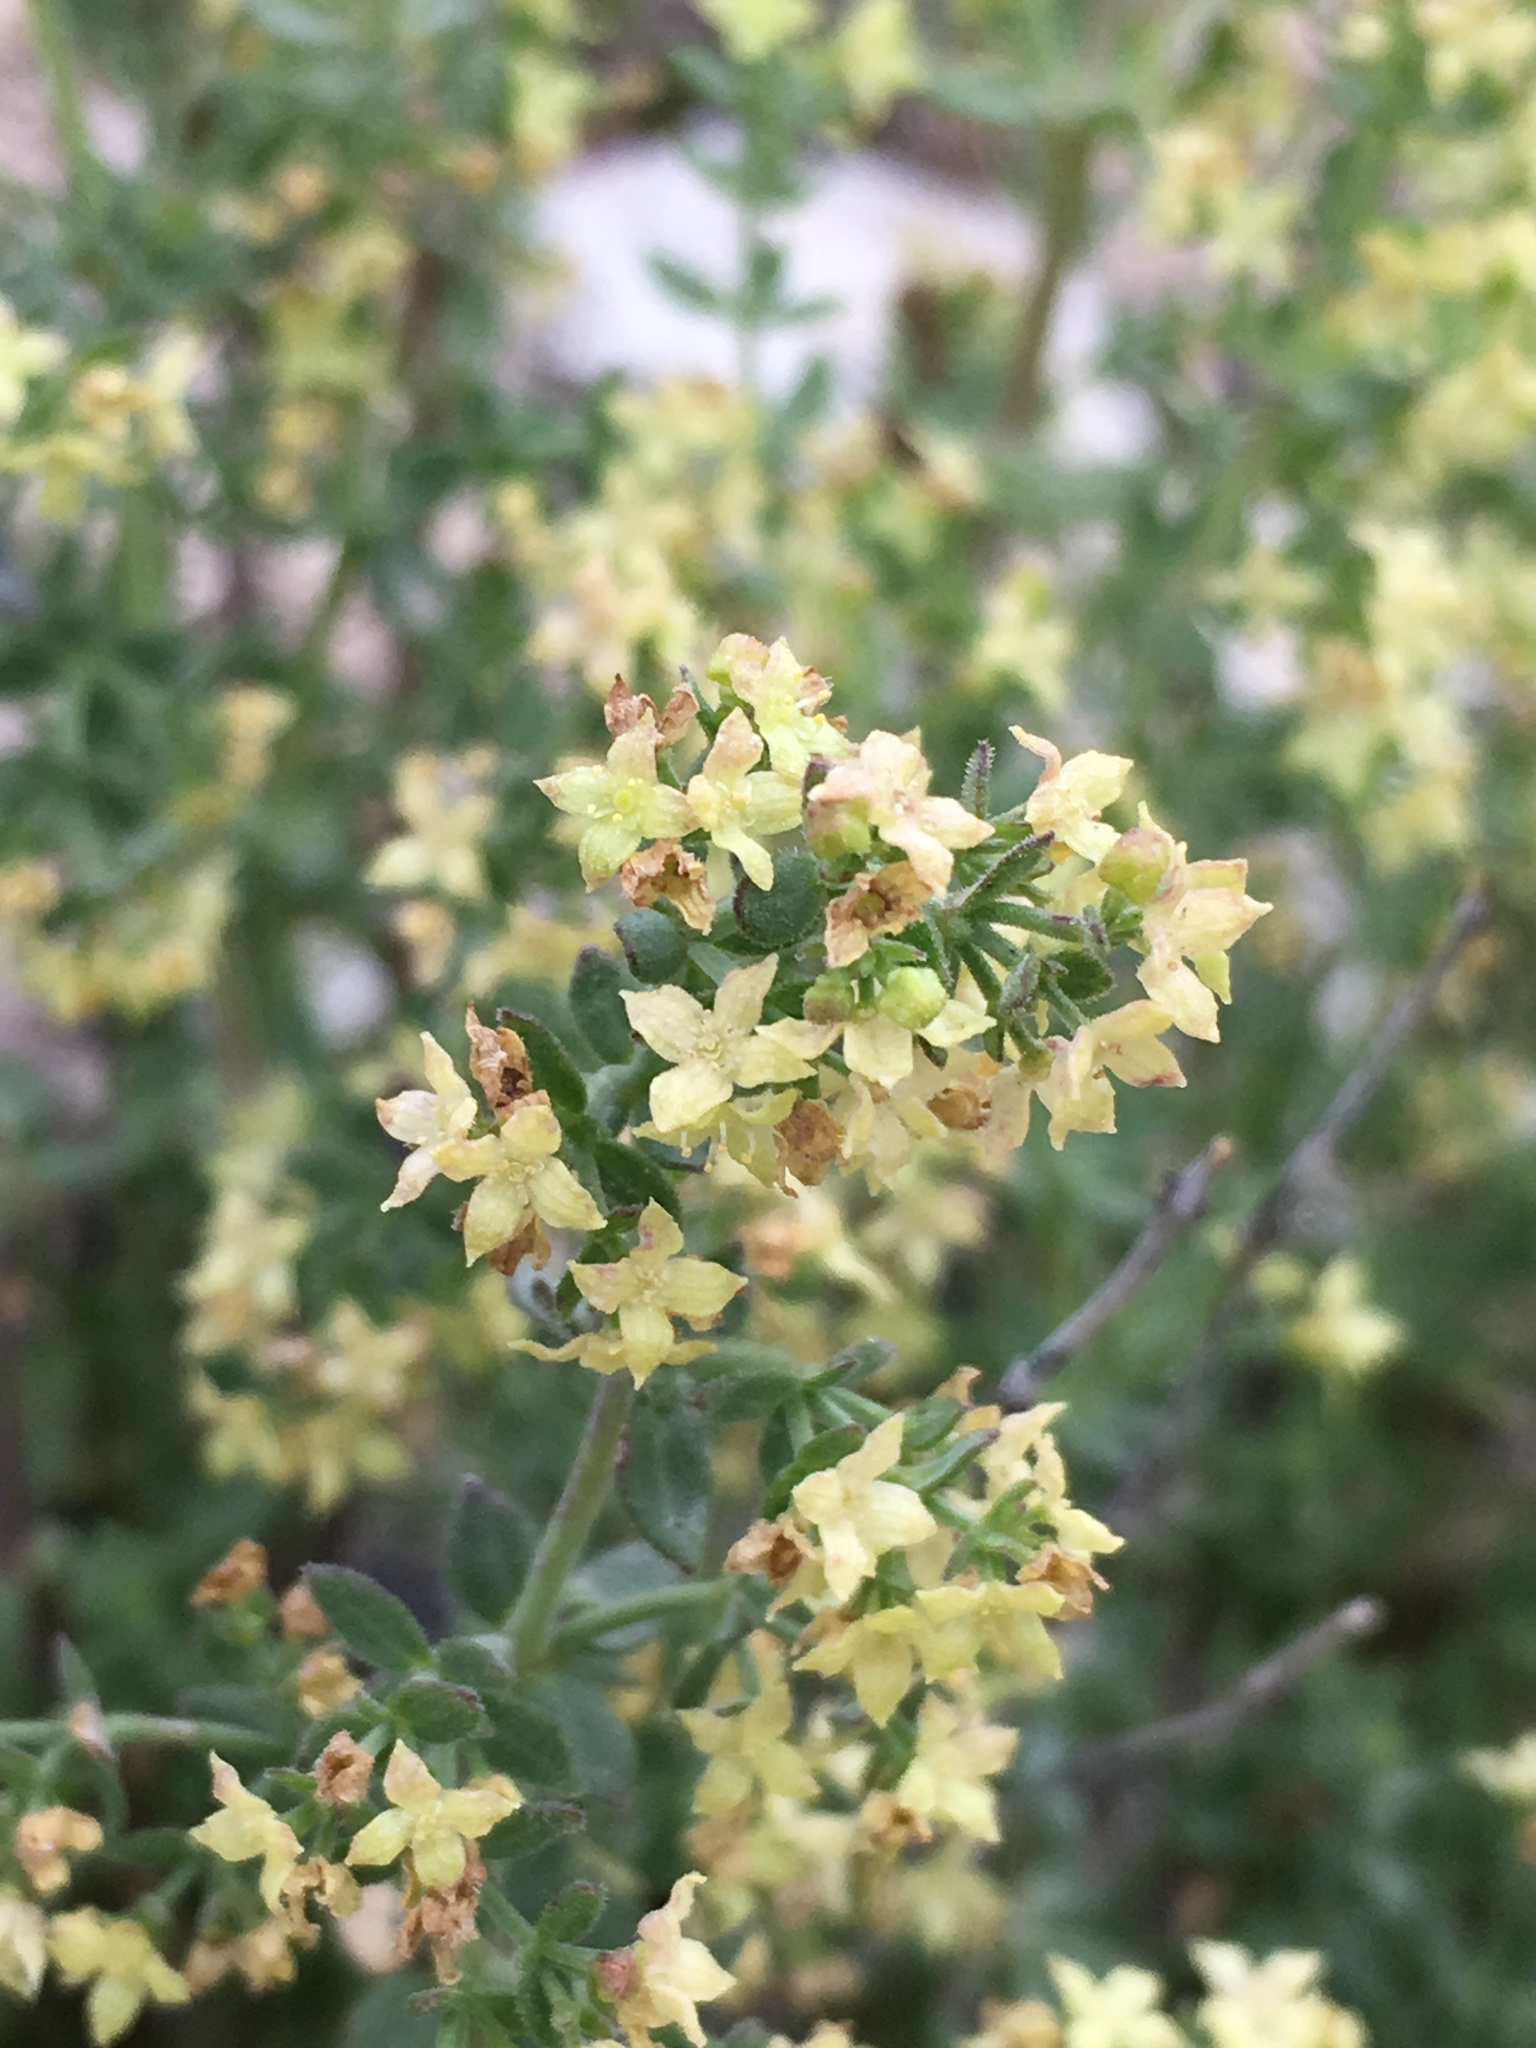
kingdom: Plantae
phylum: Tracheophyta
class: Magnoliopsida
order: Gentianales
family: Rubiaceae
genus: Galium
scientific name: Galium stellatum
